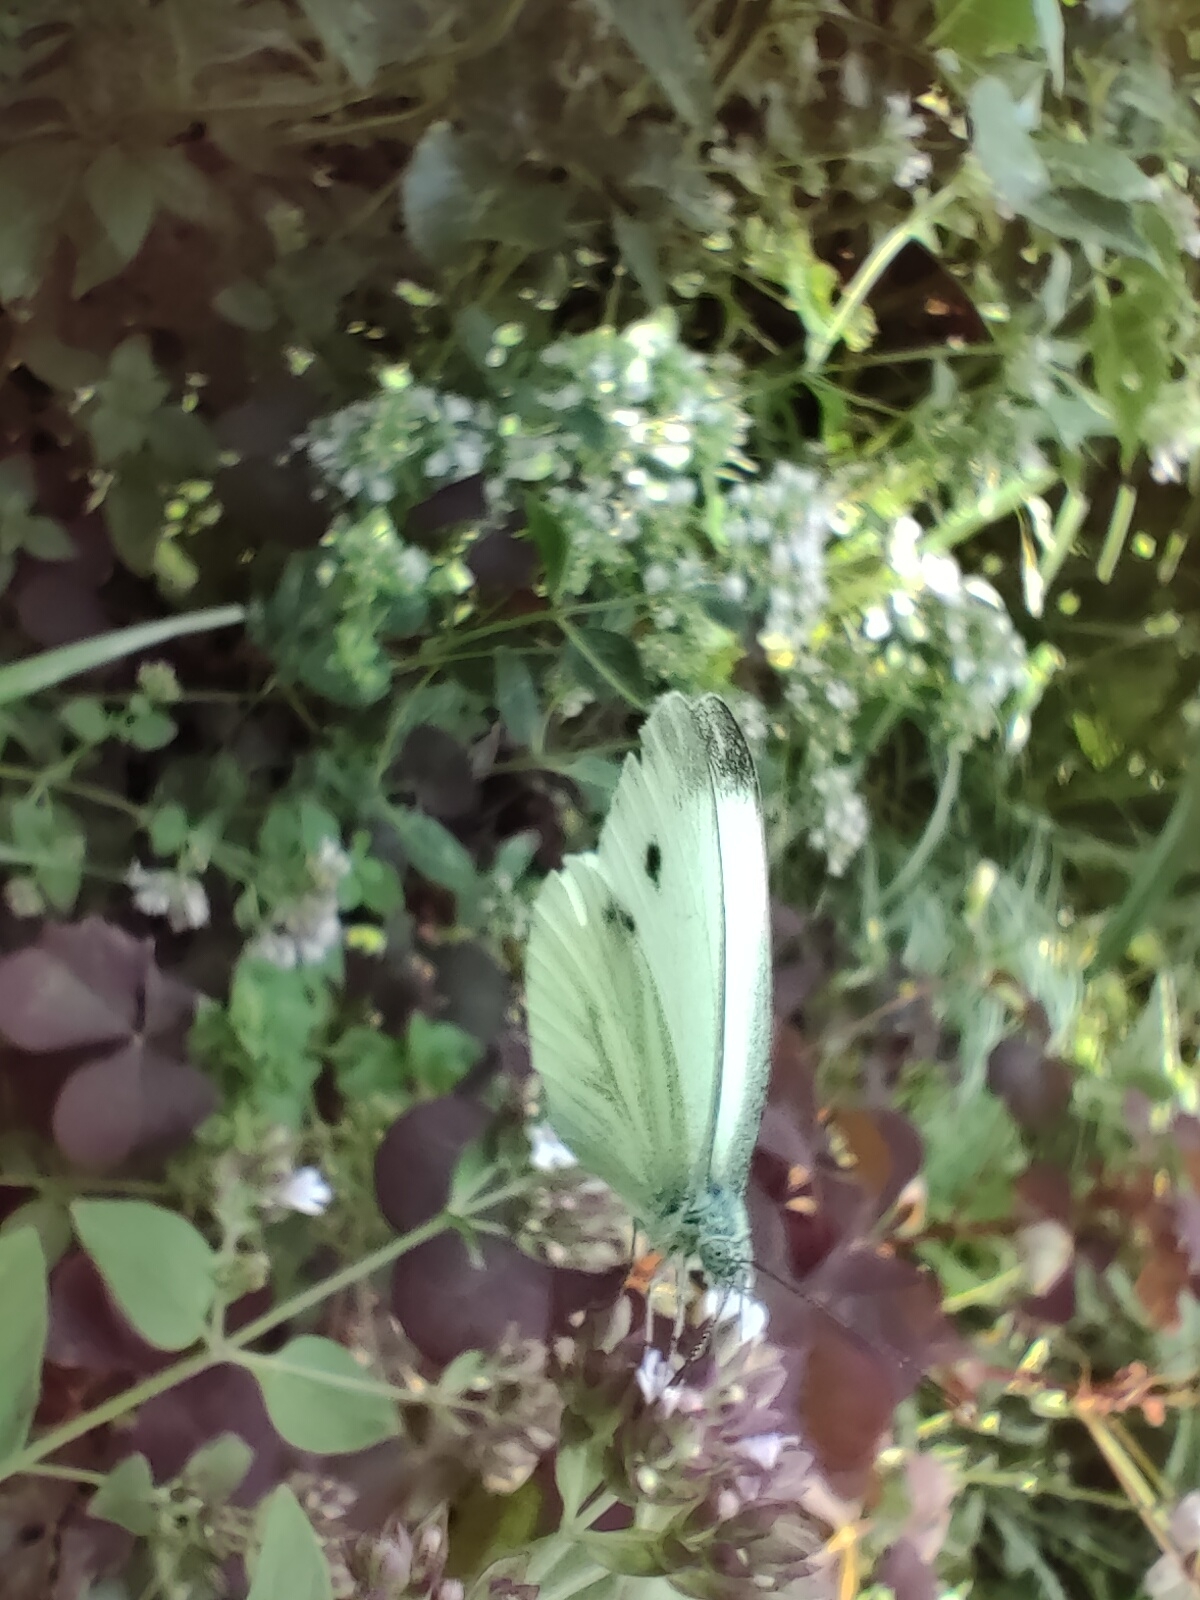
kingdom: Animalia
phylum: Arthropoda
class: Insecta
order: Lepidoptera
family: Pieridae
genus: Pieris
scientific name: Pieris napi
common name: Green-veined white
